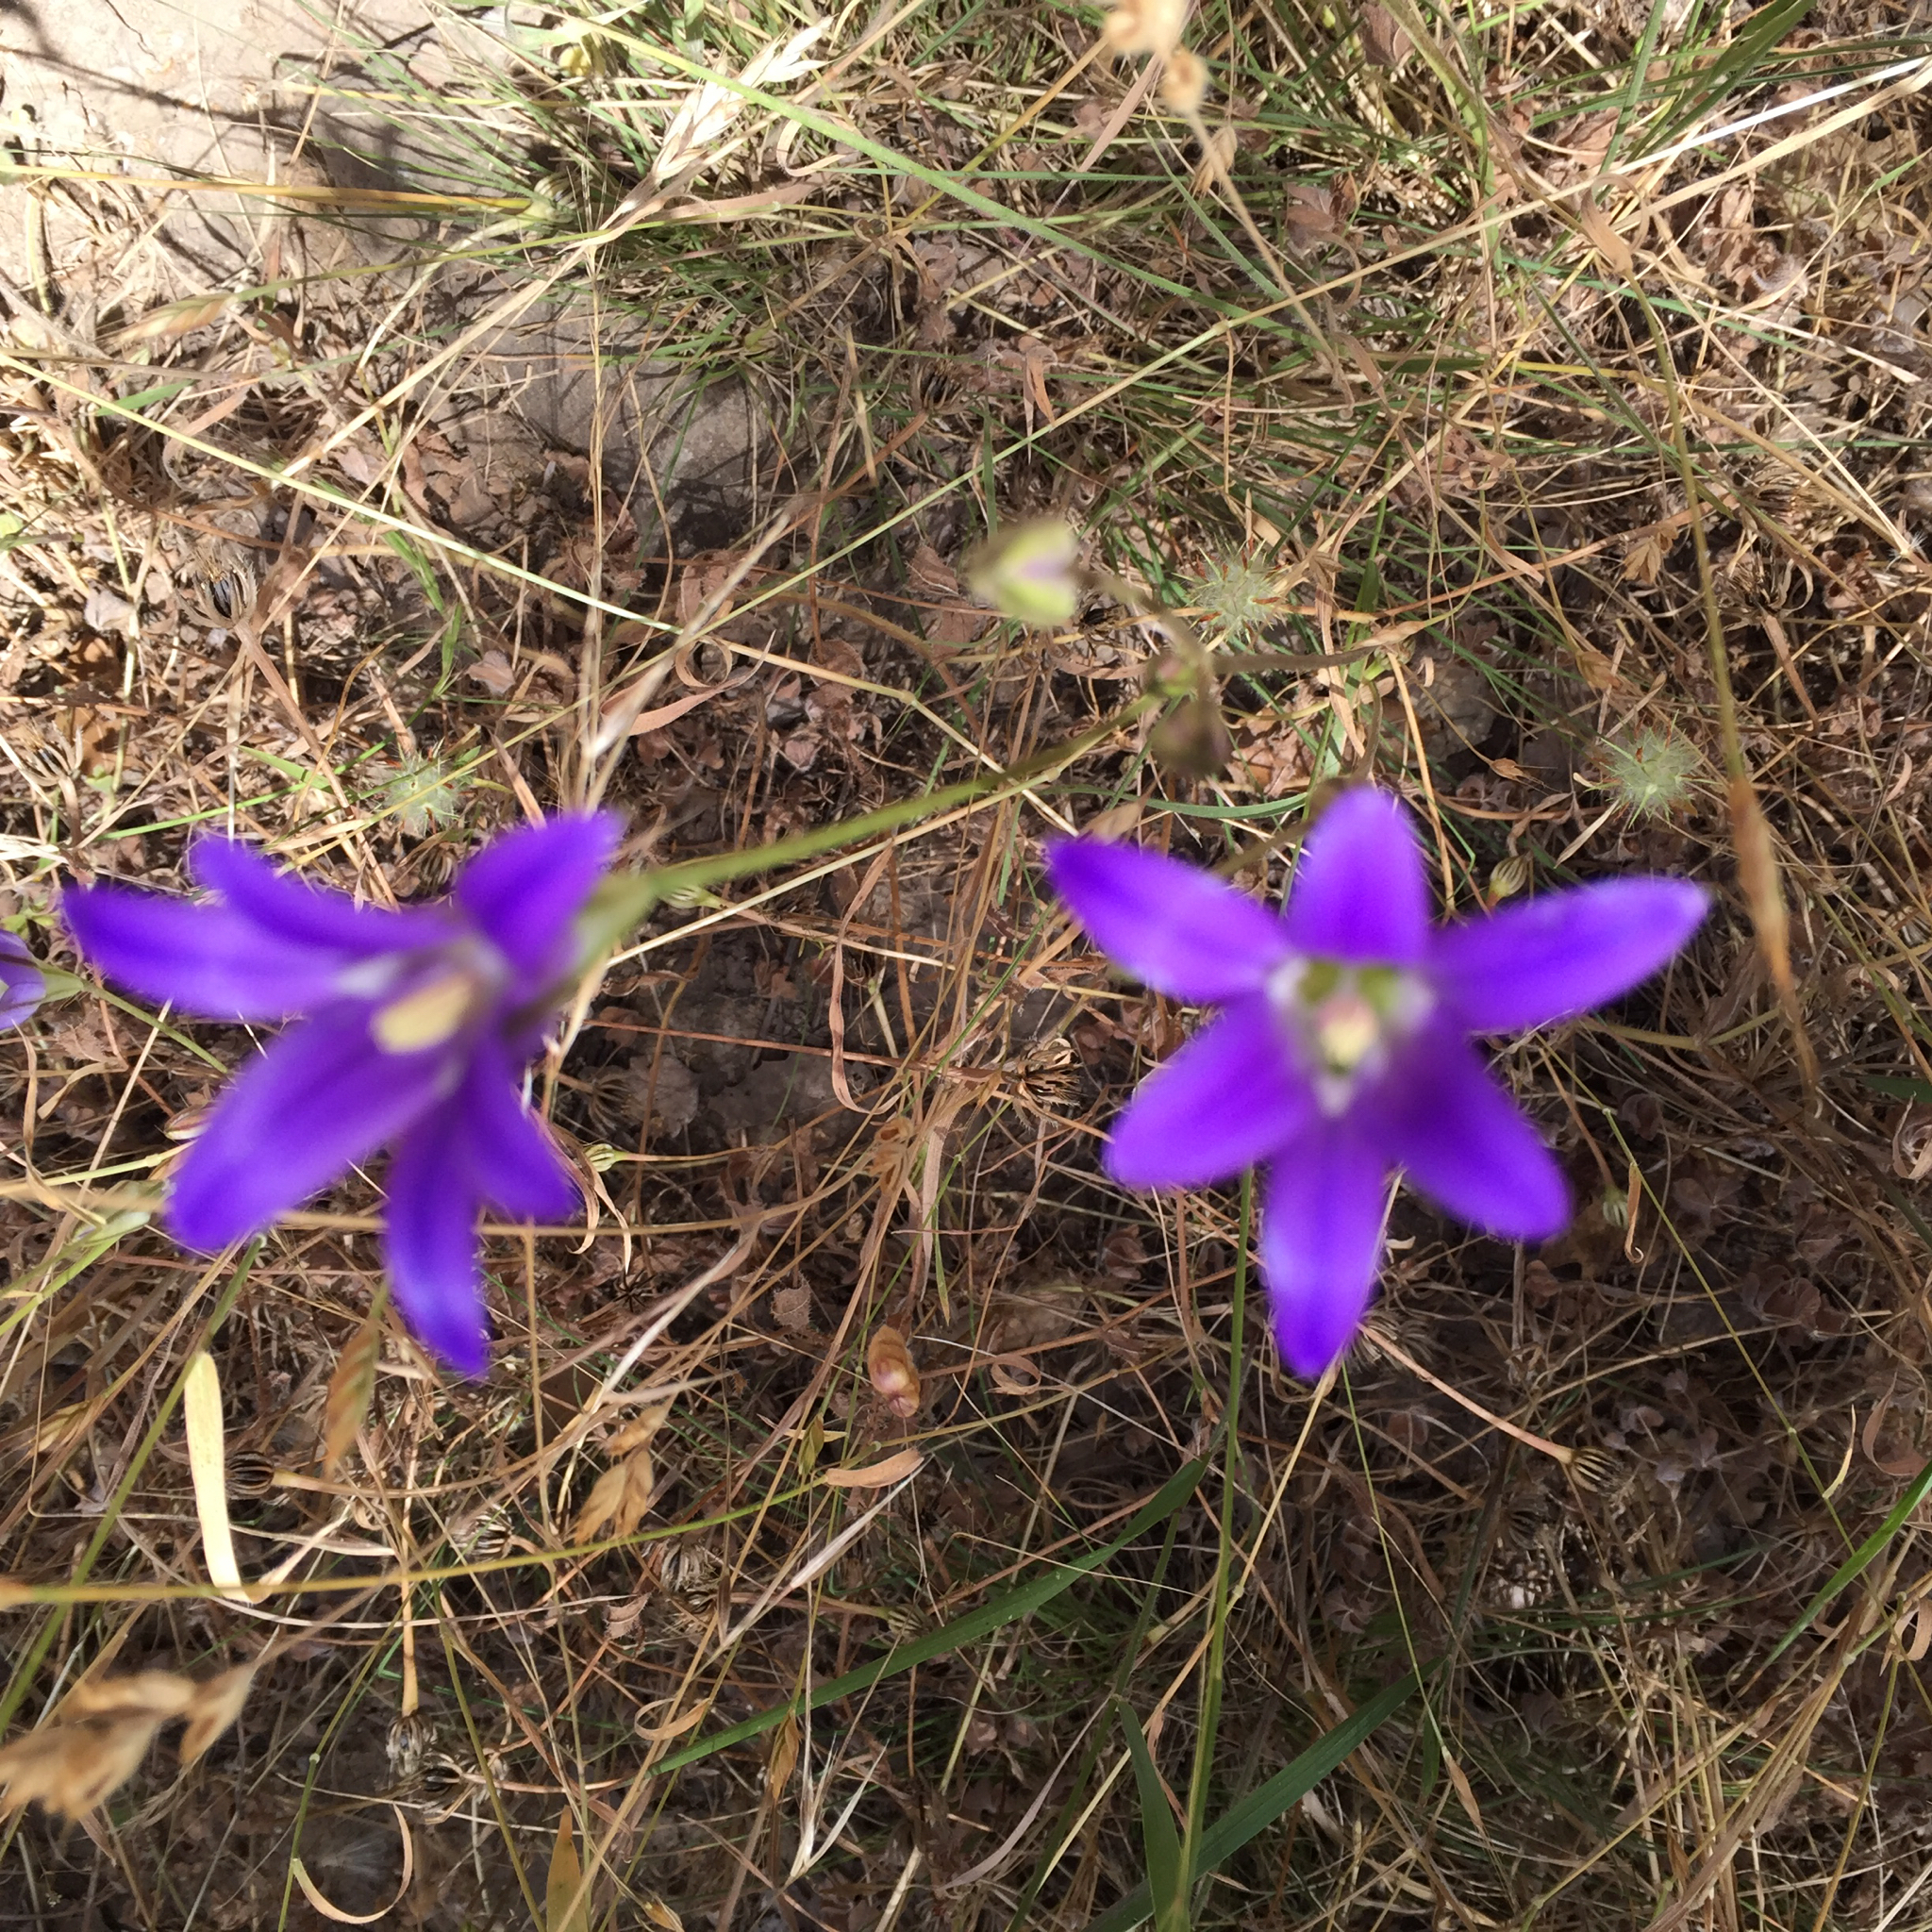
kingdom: Plantae
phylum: Tracheophyta
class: Liliopsida
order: Asparagales
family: Asparagaceae
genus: Brodiaea
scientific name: Brodiaea elegans
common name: Elegant cluster-lily
